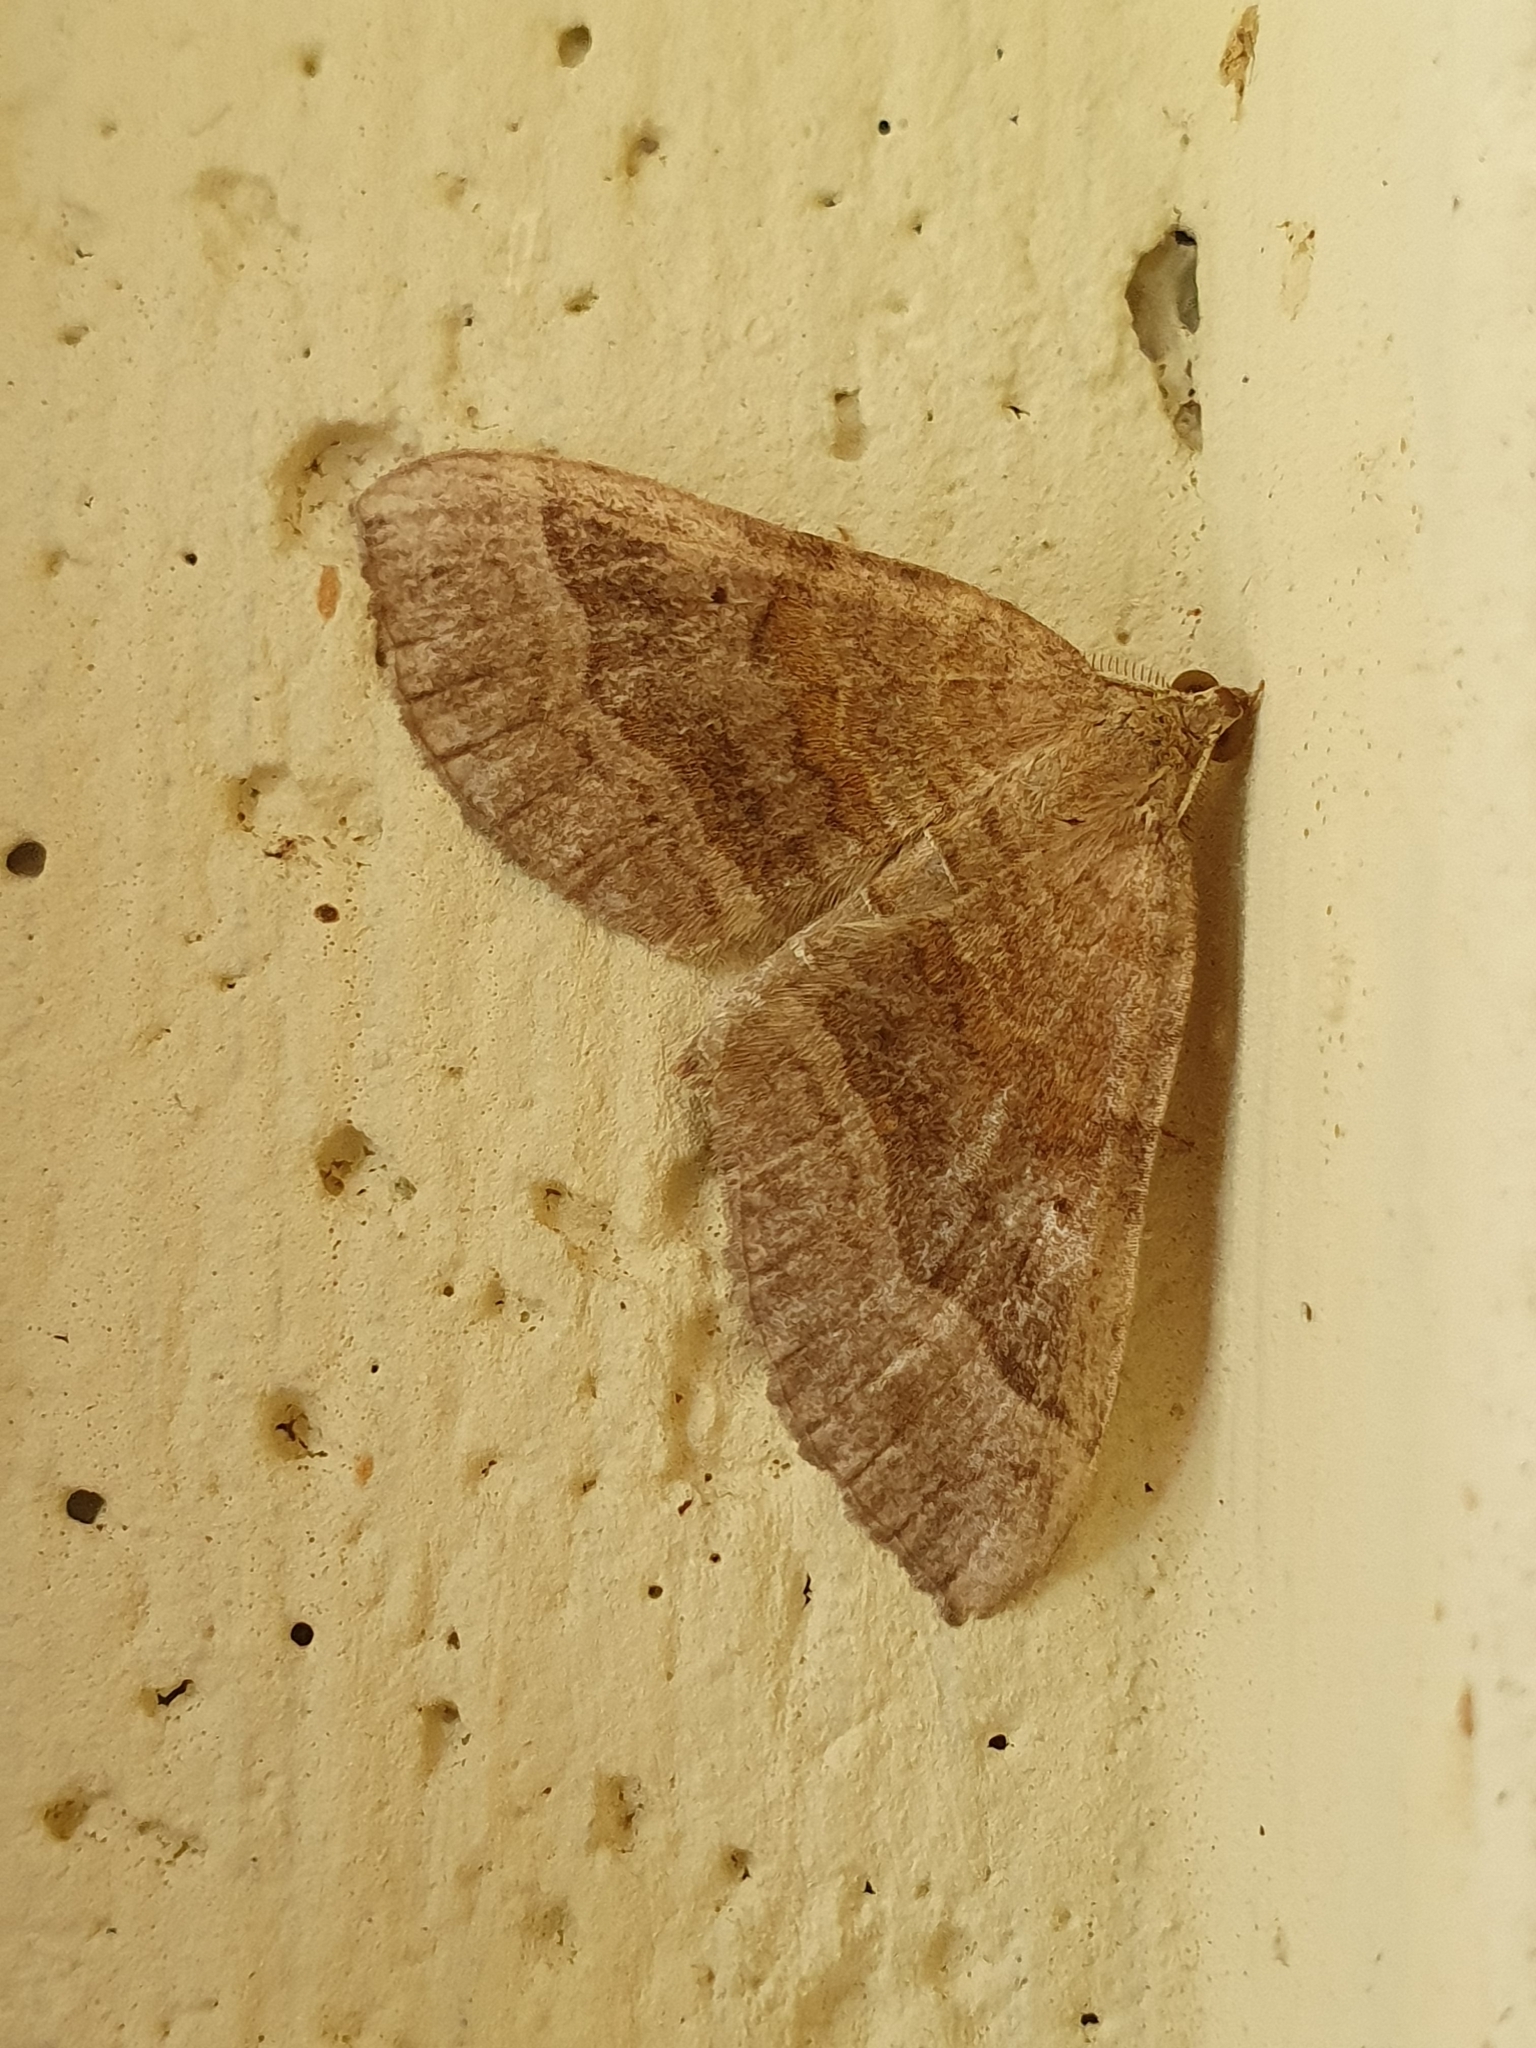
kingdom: Animalia
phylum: Arthropoda
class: Insecta
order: Lepidoptera
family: Geometridae
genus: Scotopteryx
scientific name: Scotopteryx chenopodiata
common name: Shaded broad-bar
